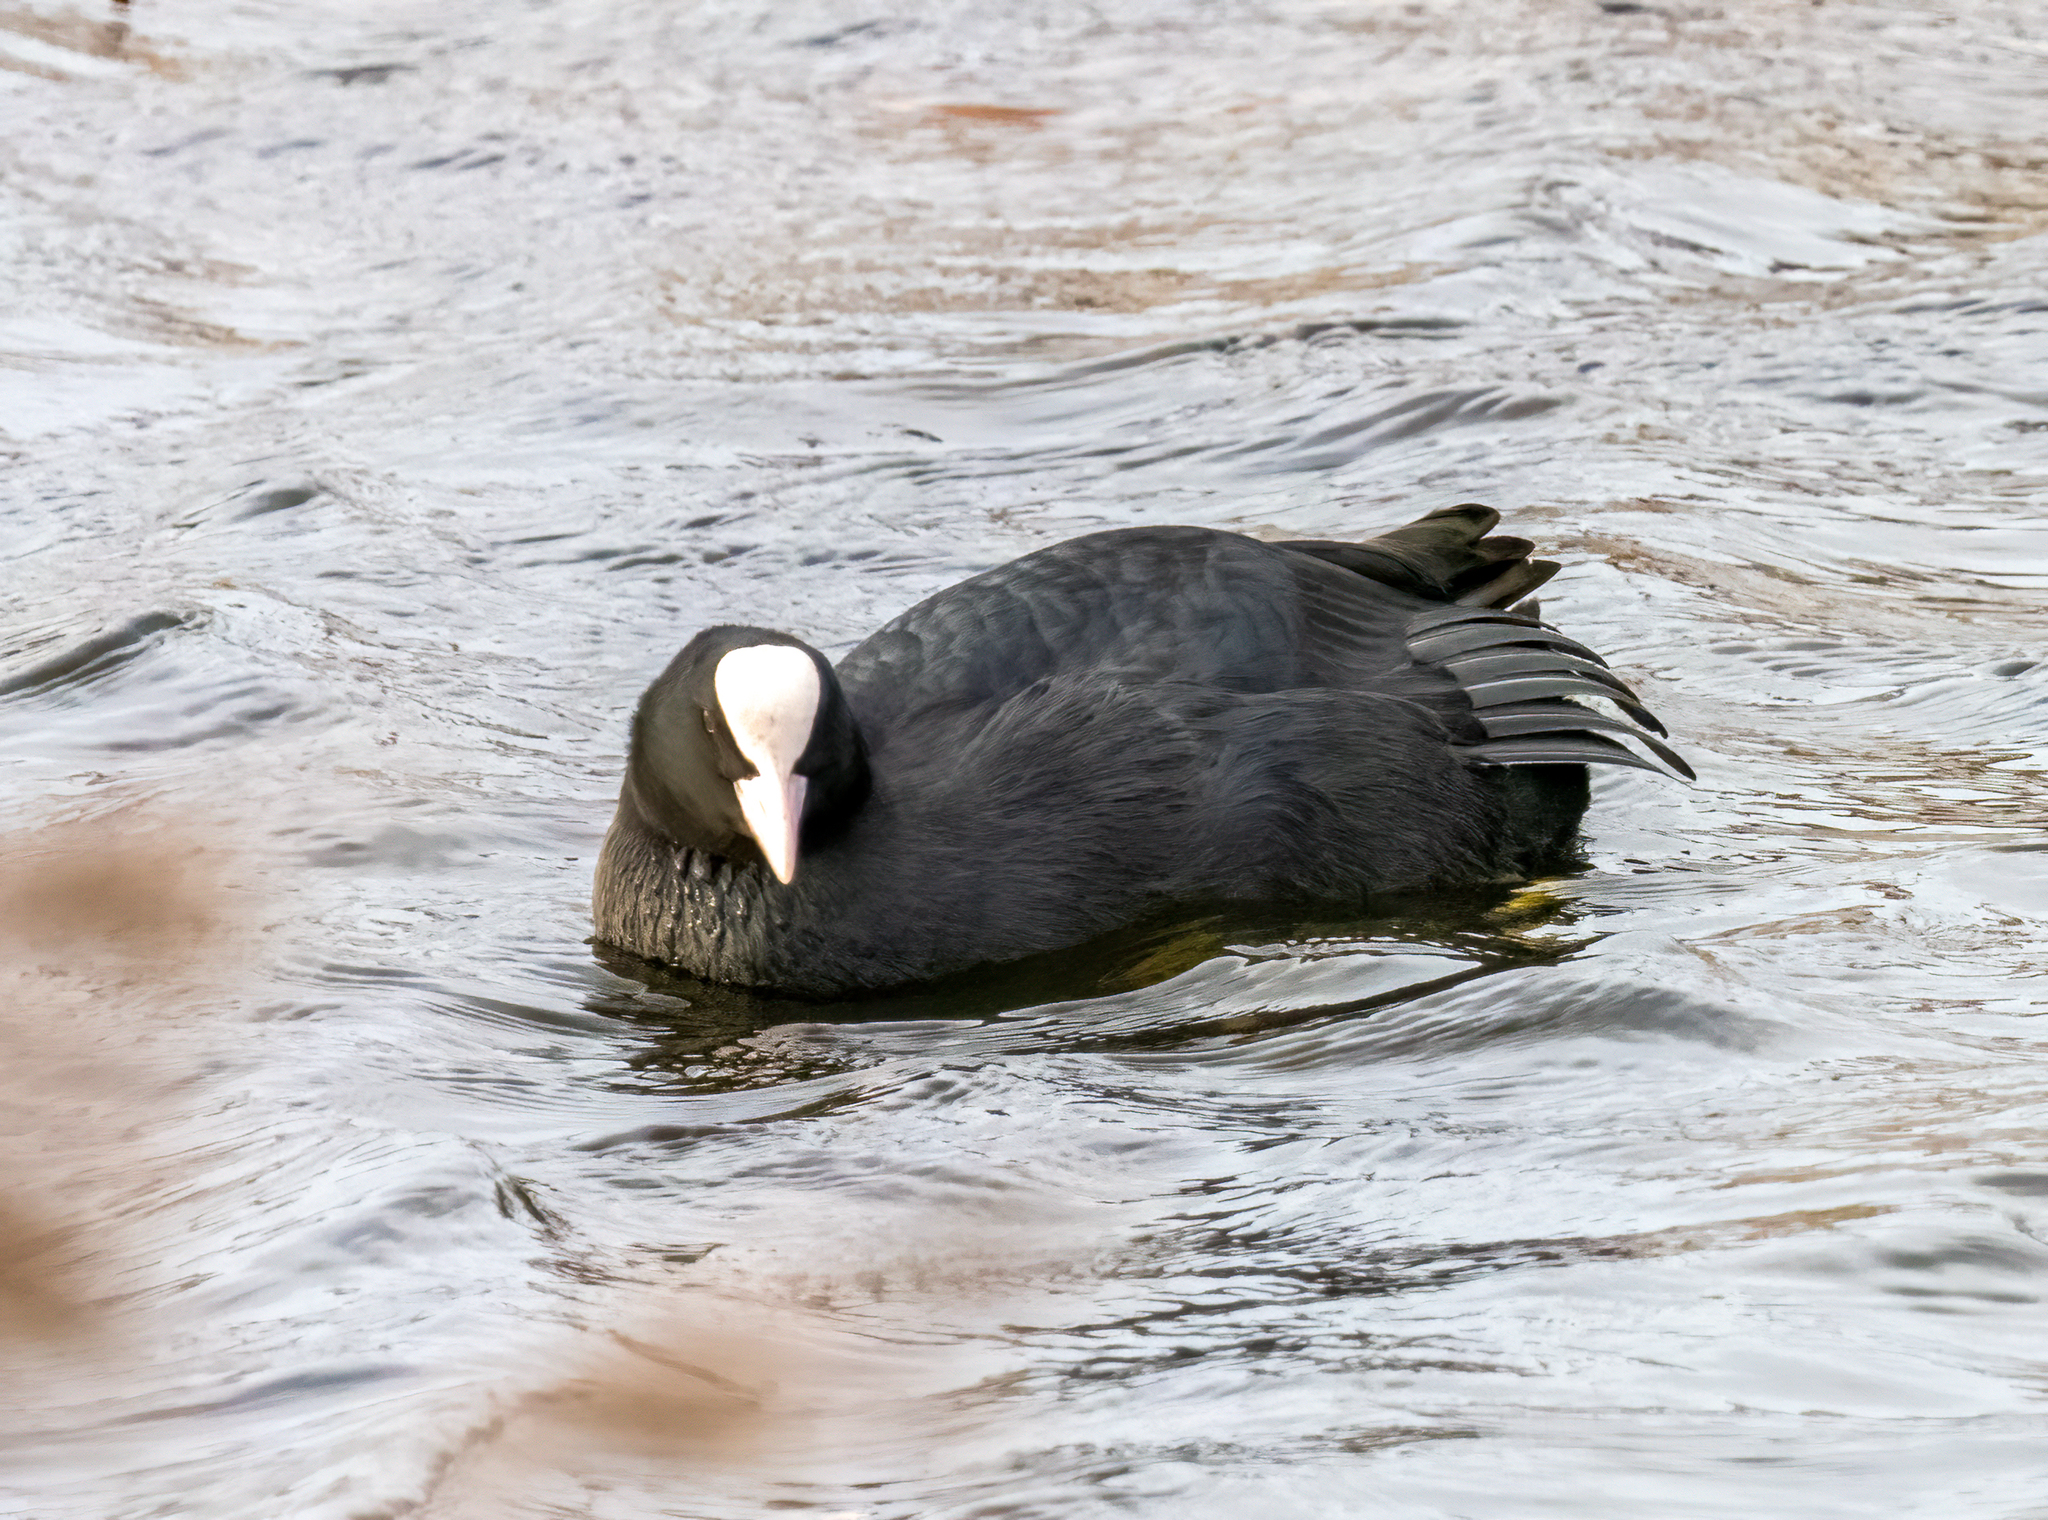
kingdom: Animalia
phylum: Chordata
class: Aves
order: Gruiformes
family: Rallidae
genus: Fulica
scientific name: Fulica atra
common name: Eurasian coot
